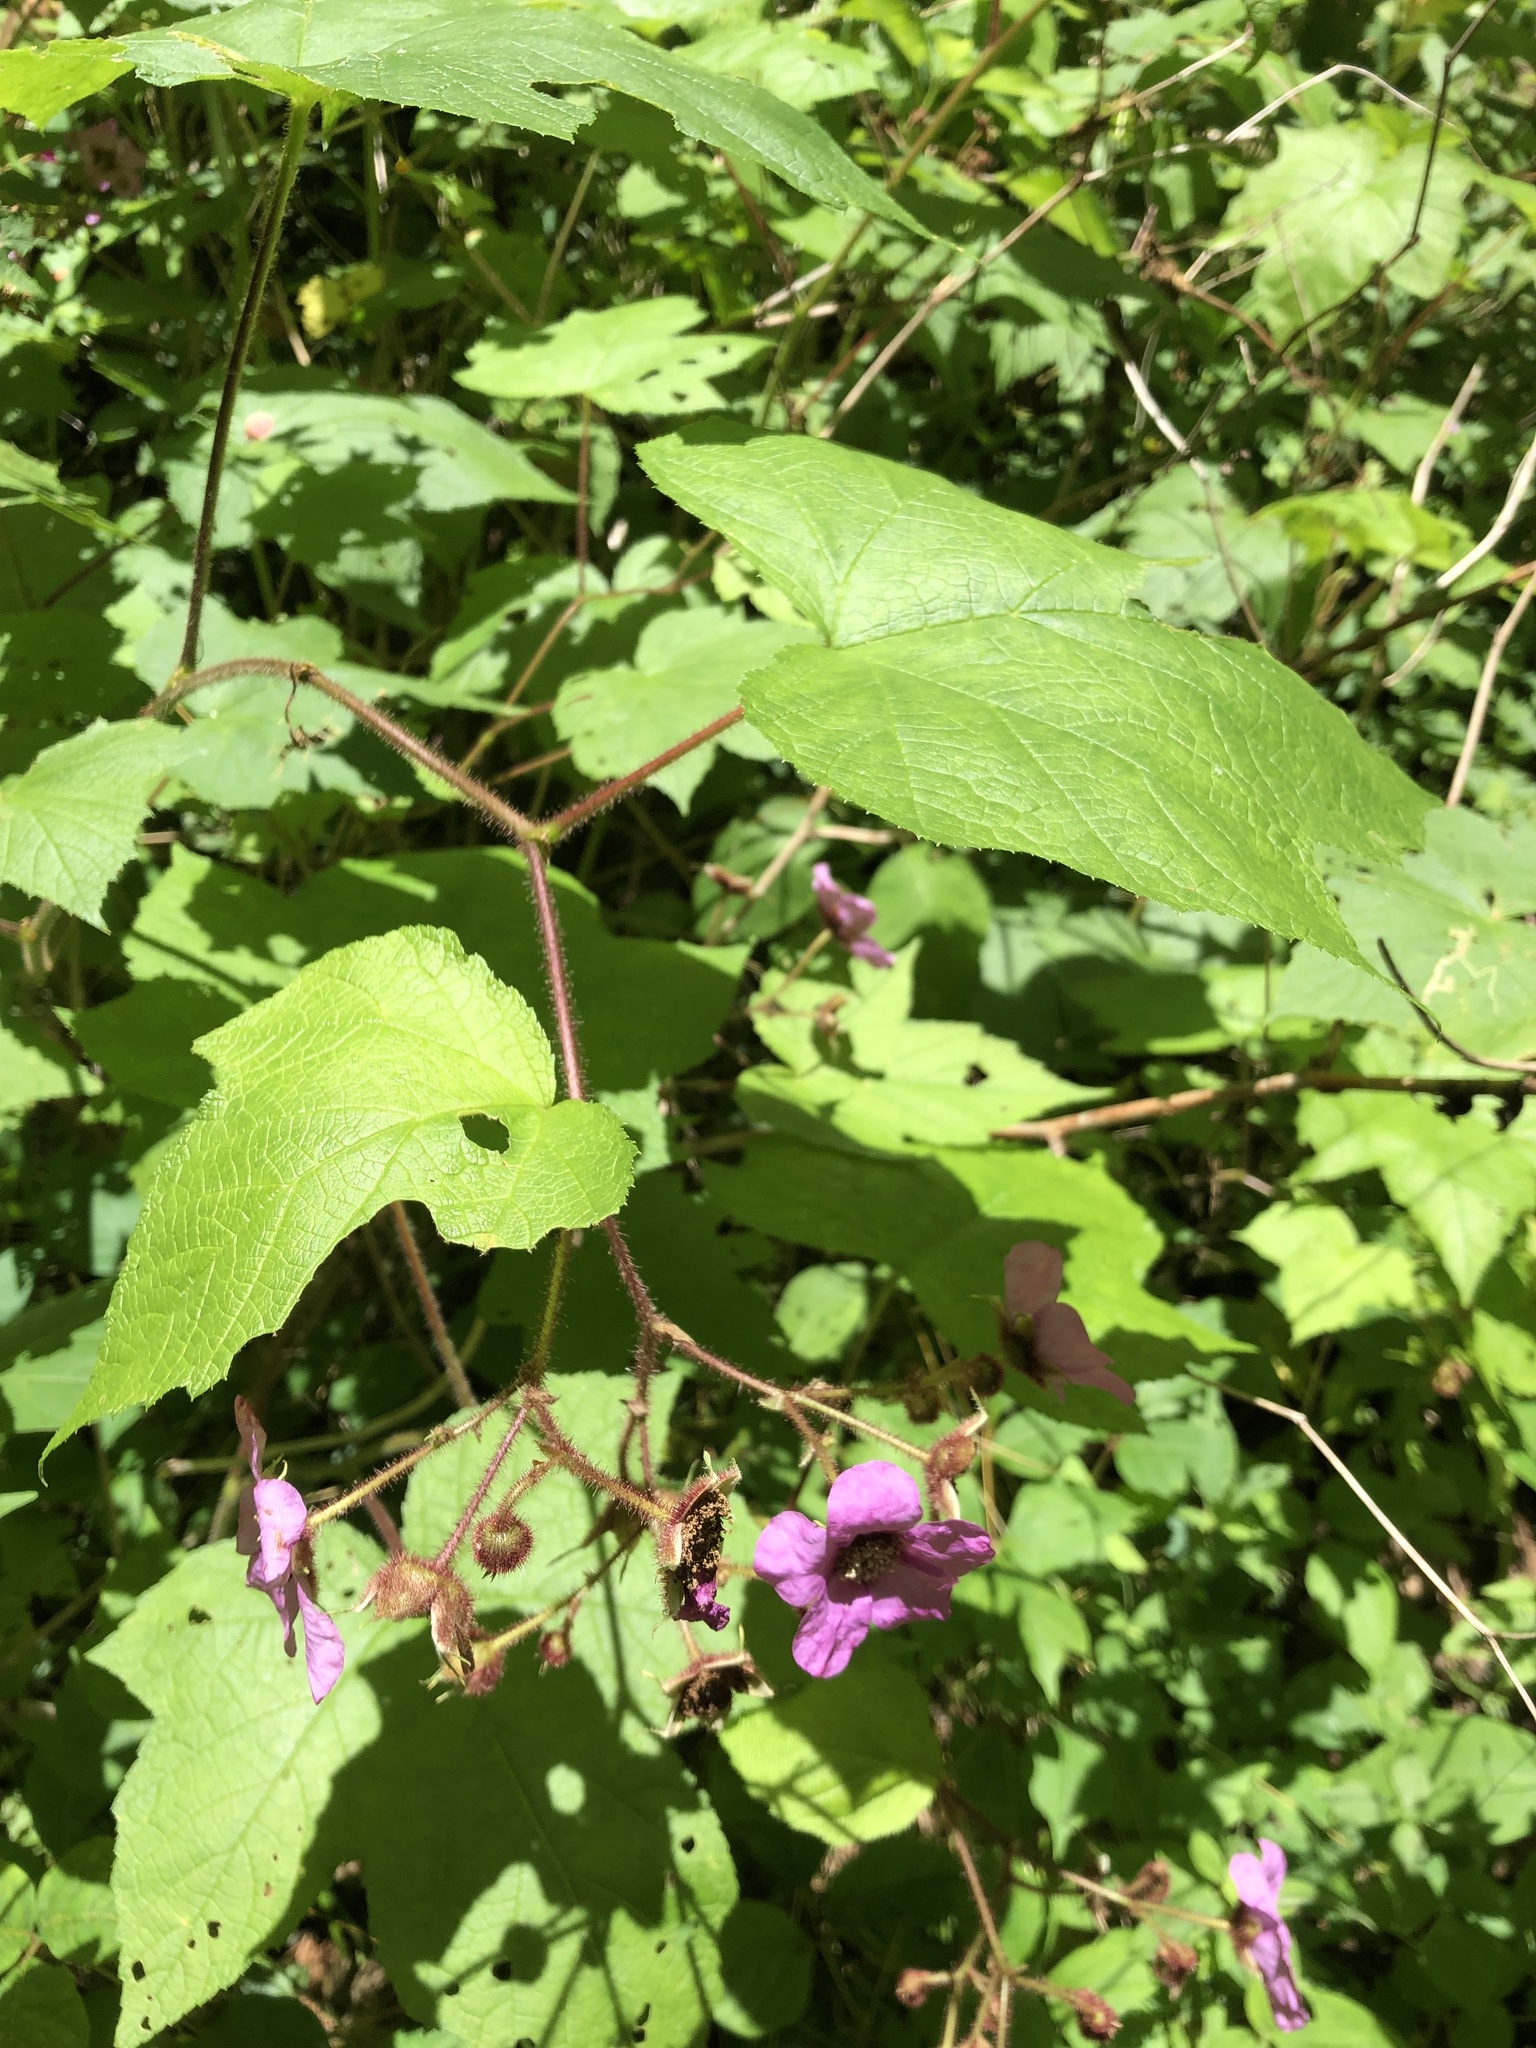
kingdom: Plantae
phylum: Tracheophyta
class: Magnoliopsida
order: Rosales
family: Rosaceae
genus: Rubus
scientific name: Rubus odoratus
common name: Purple-flowered raspberry
